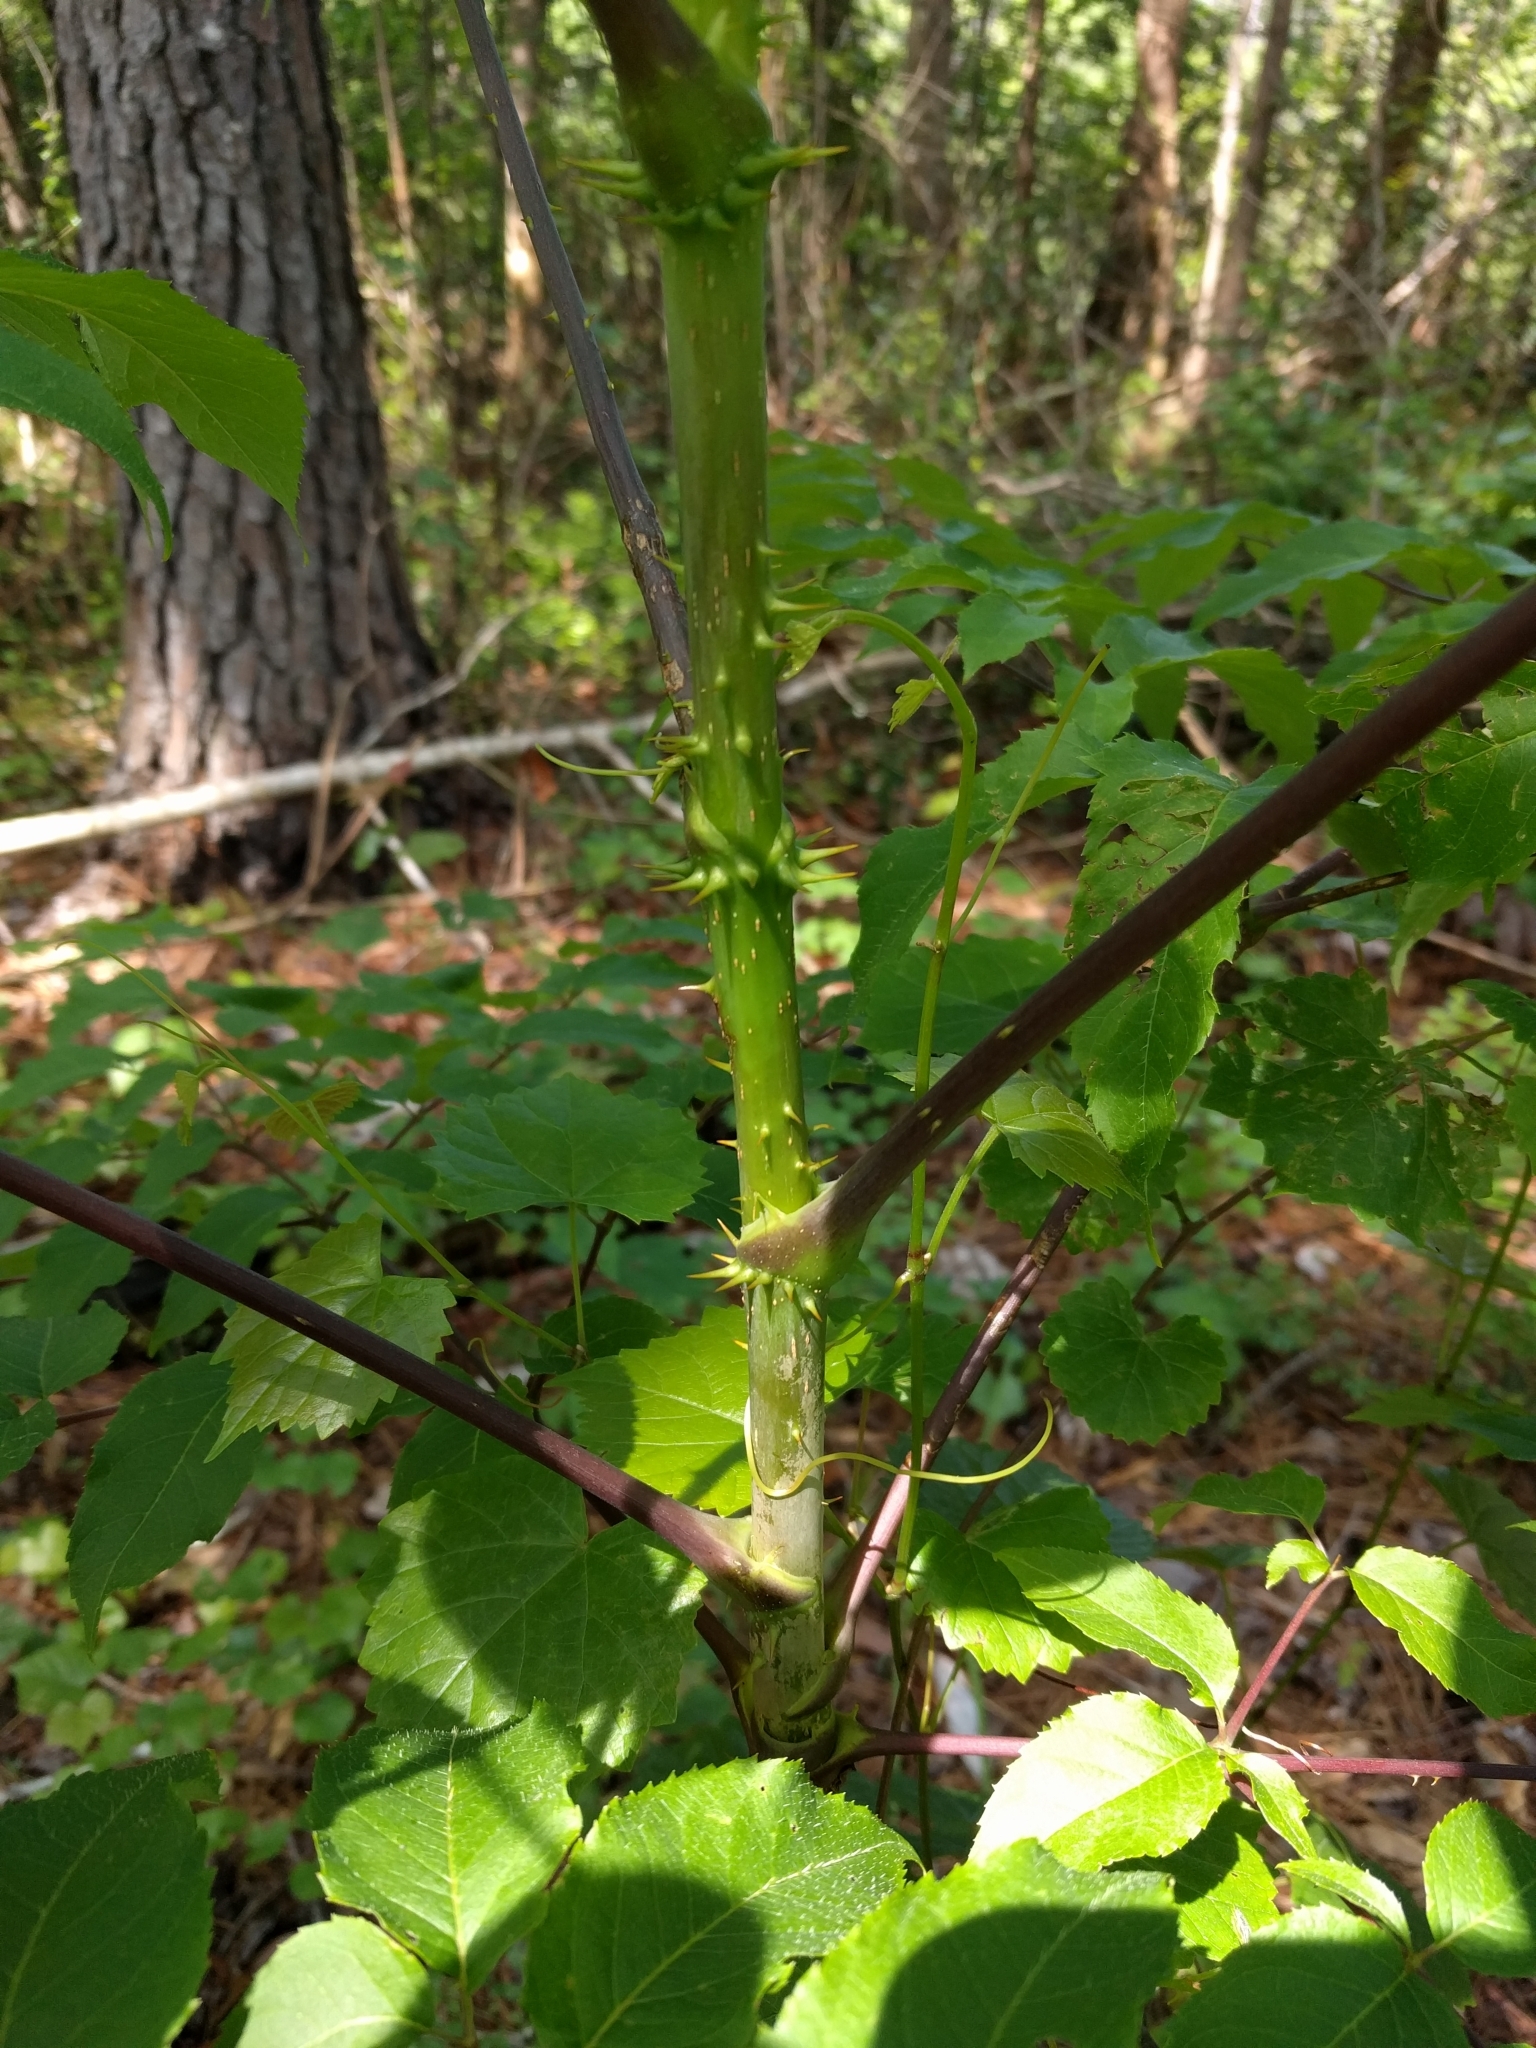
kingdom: Plantae
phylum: Tracheophyta
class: Magnoliopsida
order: Apiales
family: Araliaceae
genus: Aralia
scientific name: Aralia spinosa
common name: Hercules'-club
